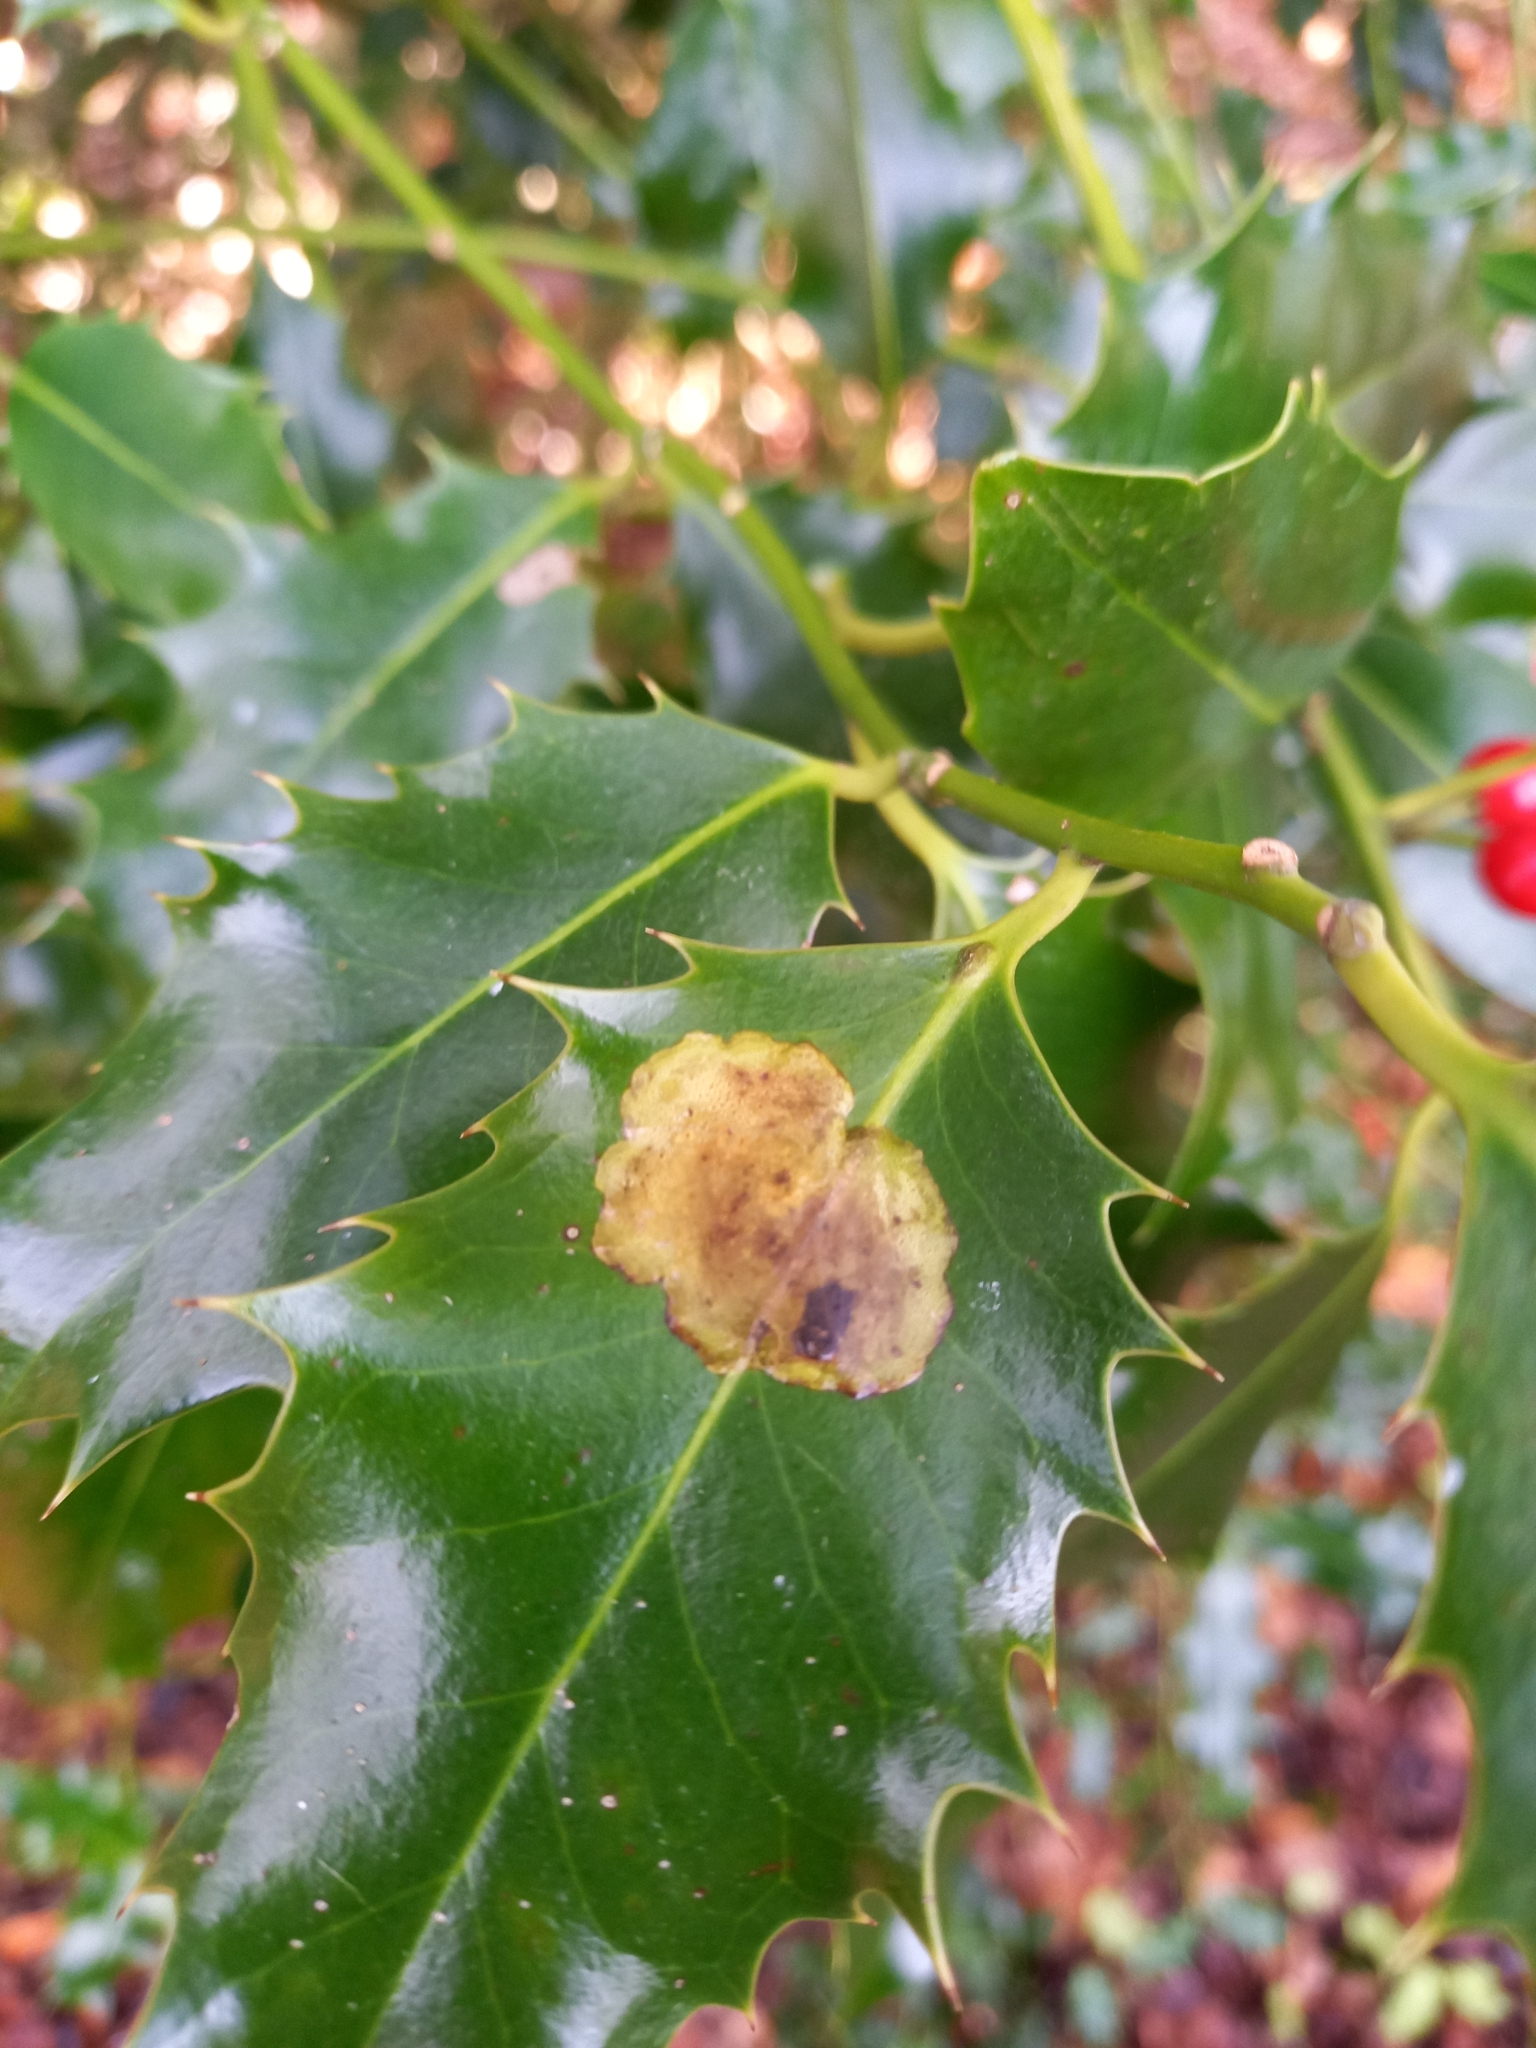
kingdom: Animalia
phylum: Arthropoda
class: Insecta
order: Diptera
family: Agromyzidae
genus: Phytomyza
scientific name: Phytomyza ilicis
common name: Holly leafminer
